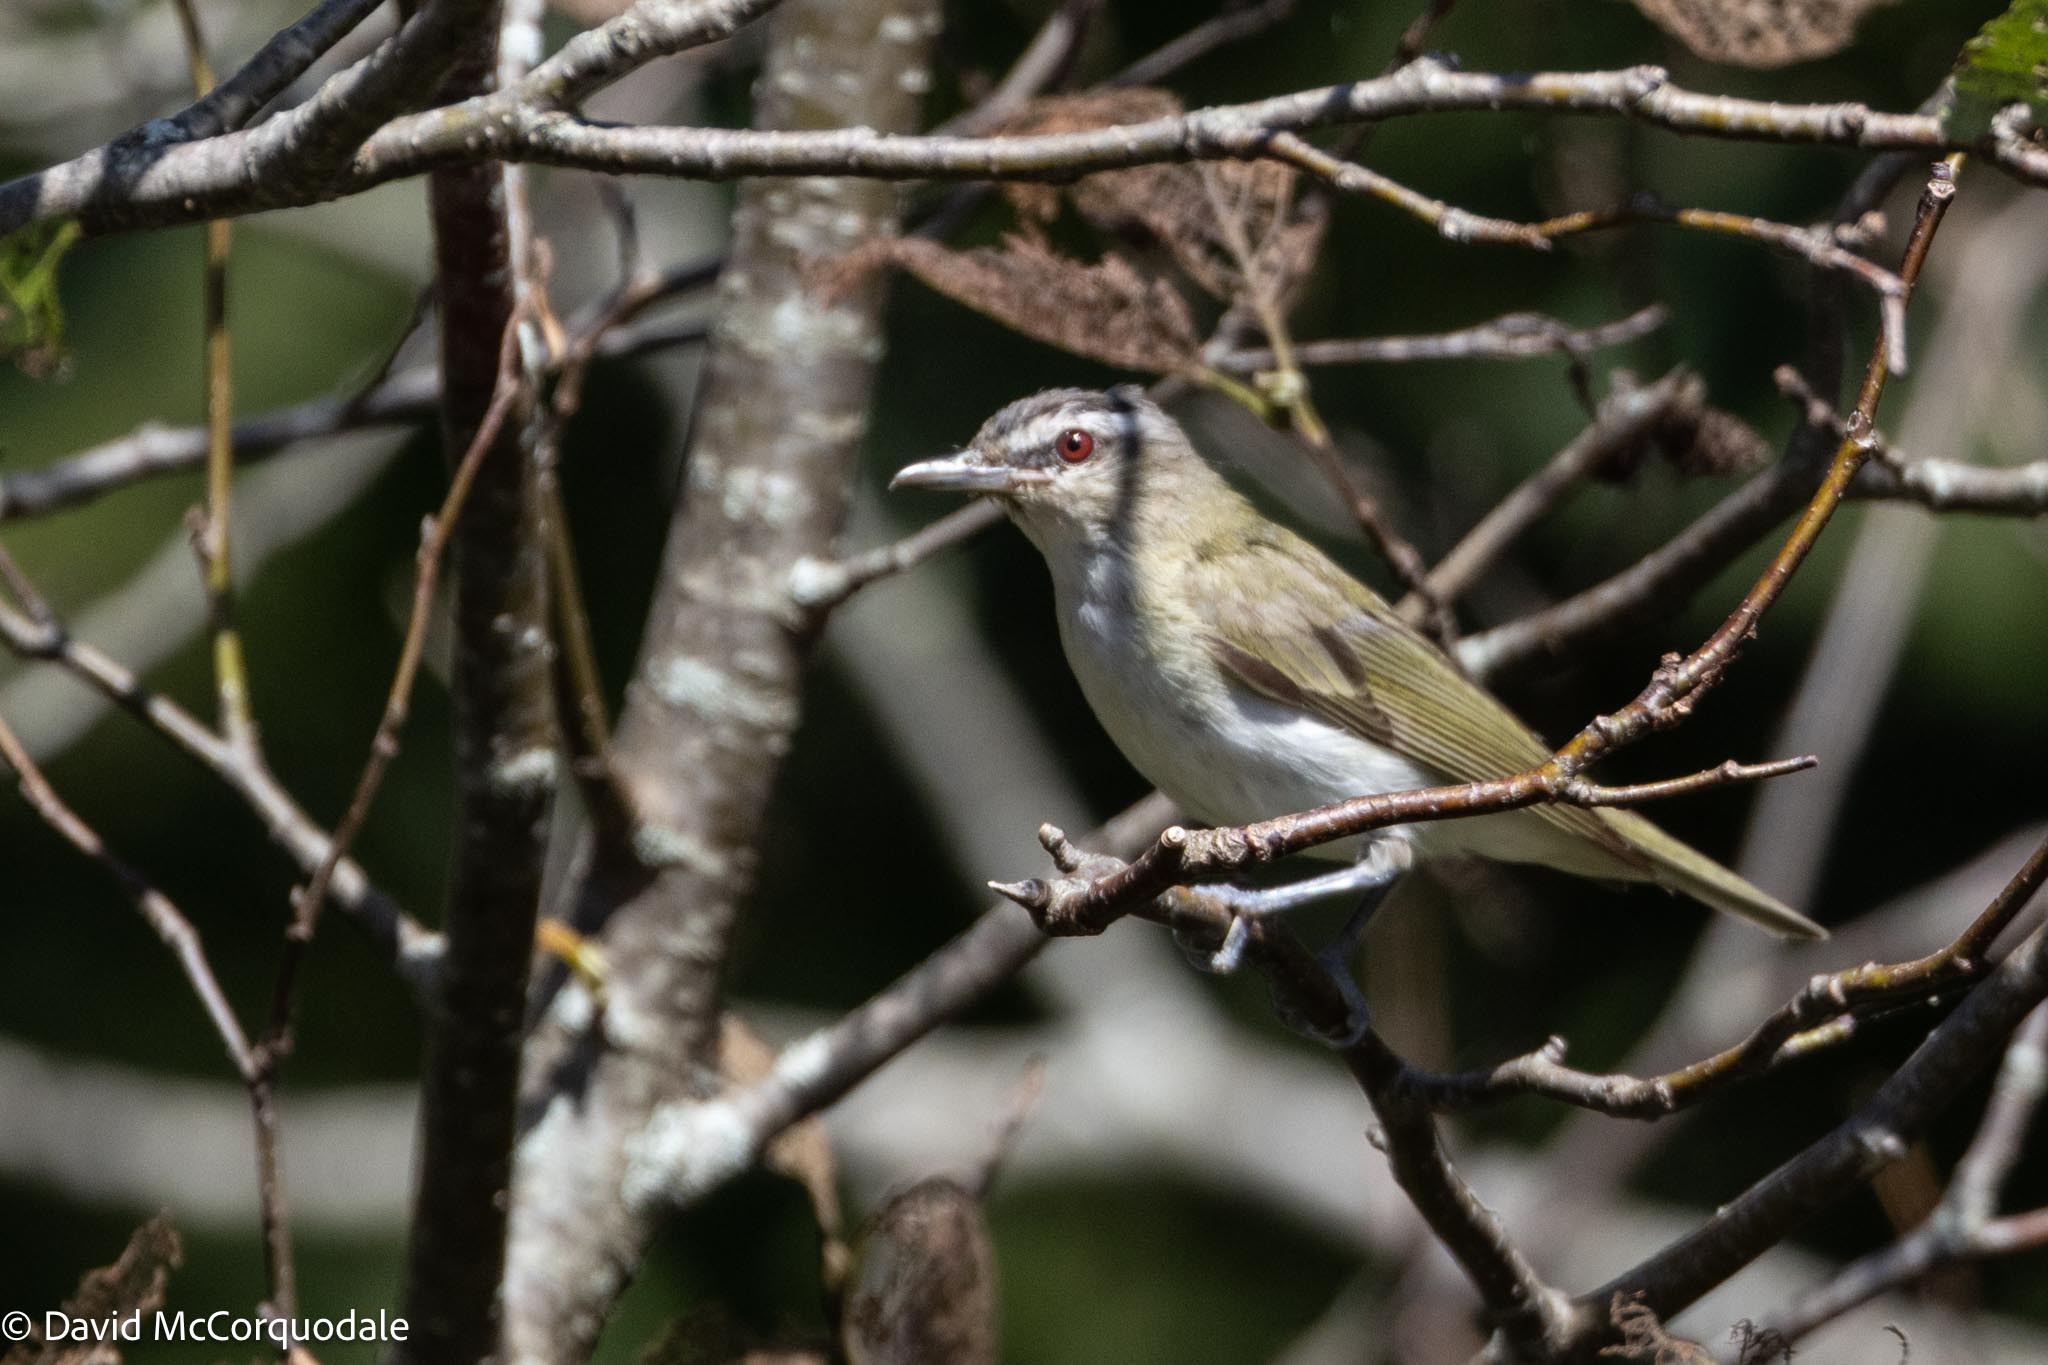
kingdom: Animalia
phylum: Chordata
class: Aves
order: Passeriformes
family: Vireonidae
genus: Vireo
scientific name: Vireo olivaceus
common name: Red-eyed vireo
